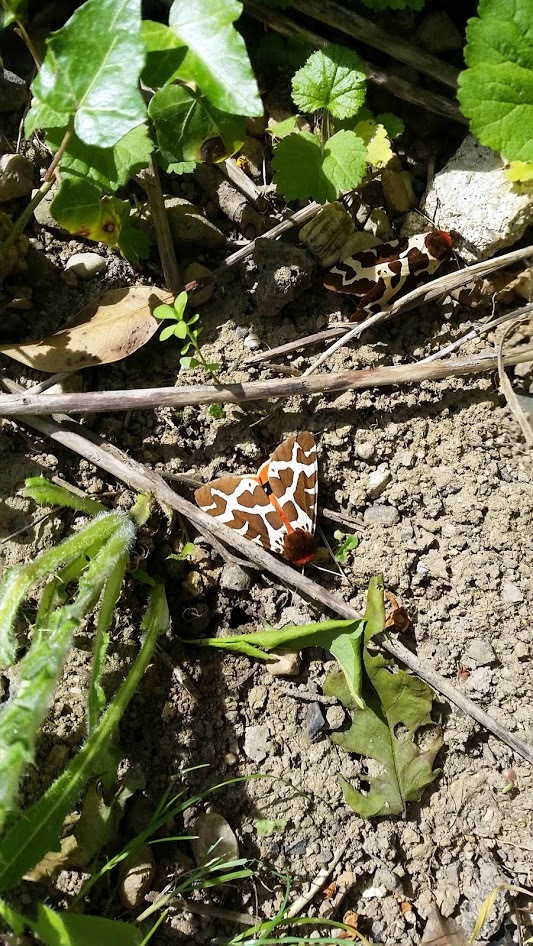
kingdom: Animalia
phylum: Arthropoda
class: Insecta
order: Lepidoptera
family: Erebidae
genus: Arctia
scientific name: Arctia caja
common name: Garden tiger
